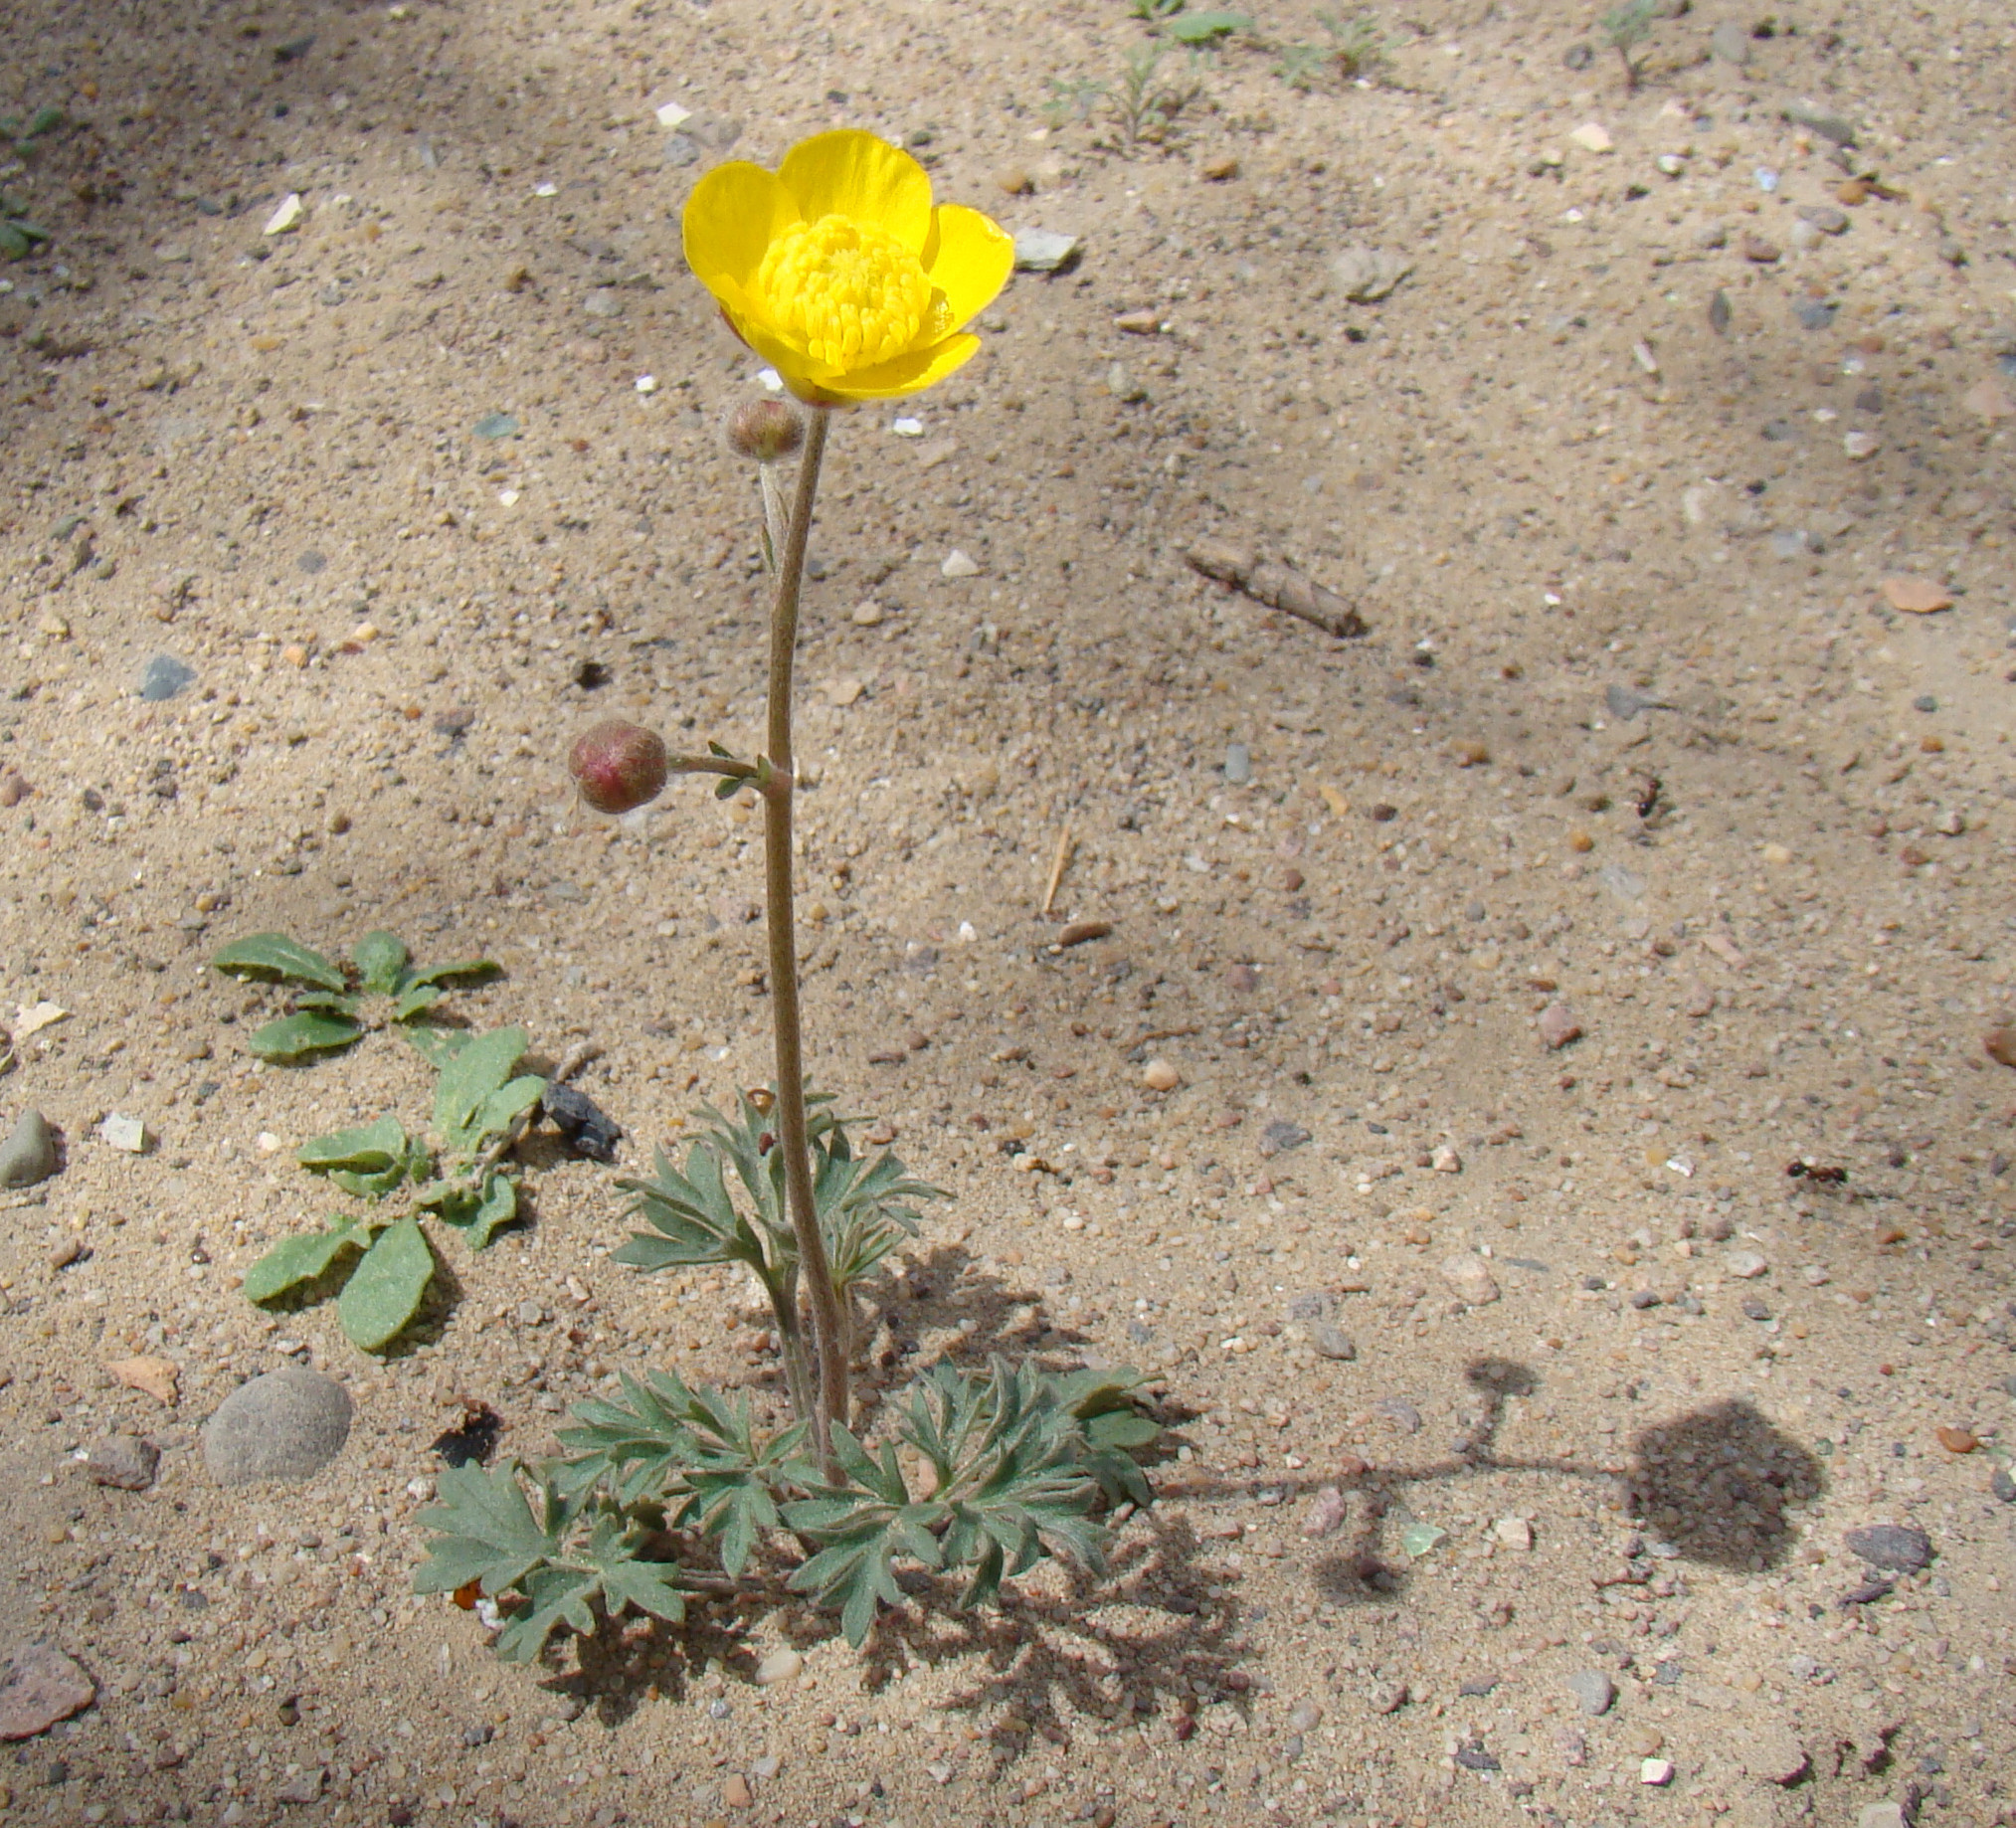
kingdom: Plantae
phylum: Tracheophyta
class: Magnoliopsida
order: Ranunculales
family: Ranunculaceae
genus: Ranunculus
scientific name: Ranunculus platyspermus
